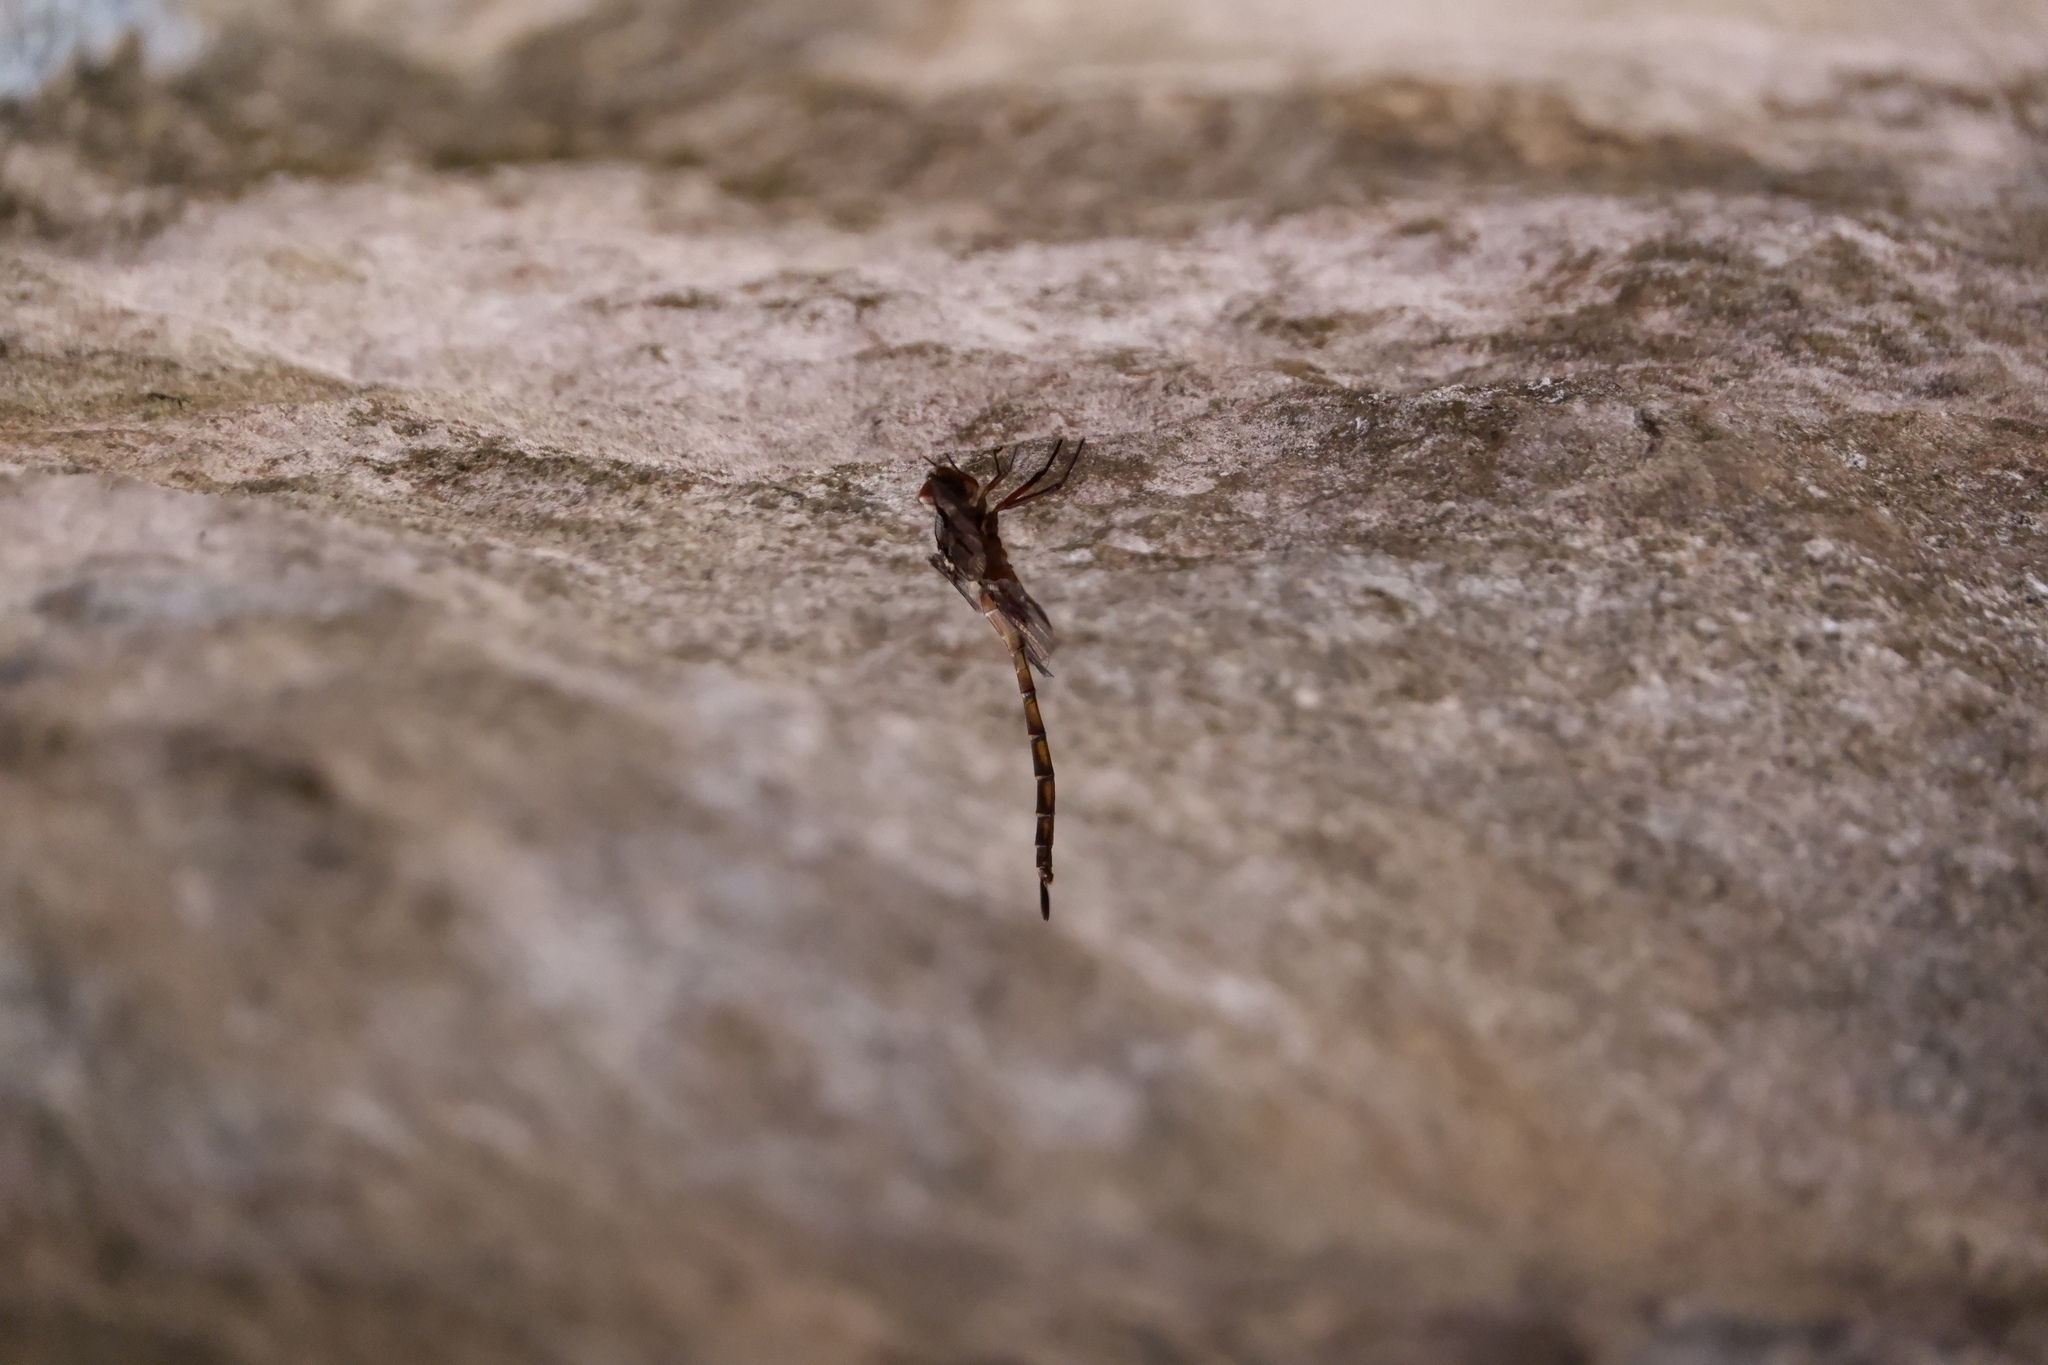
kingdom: Animalia
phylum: Arthropoda
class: Insecta
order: Odonata
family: Corduliidae
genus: Epitheca
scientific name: Epitheca princeps
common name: Prince baskettail
